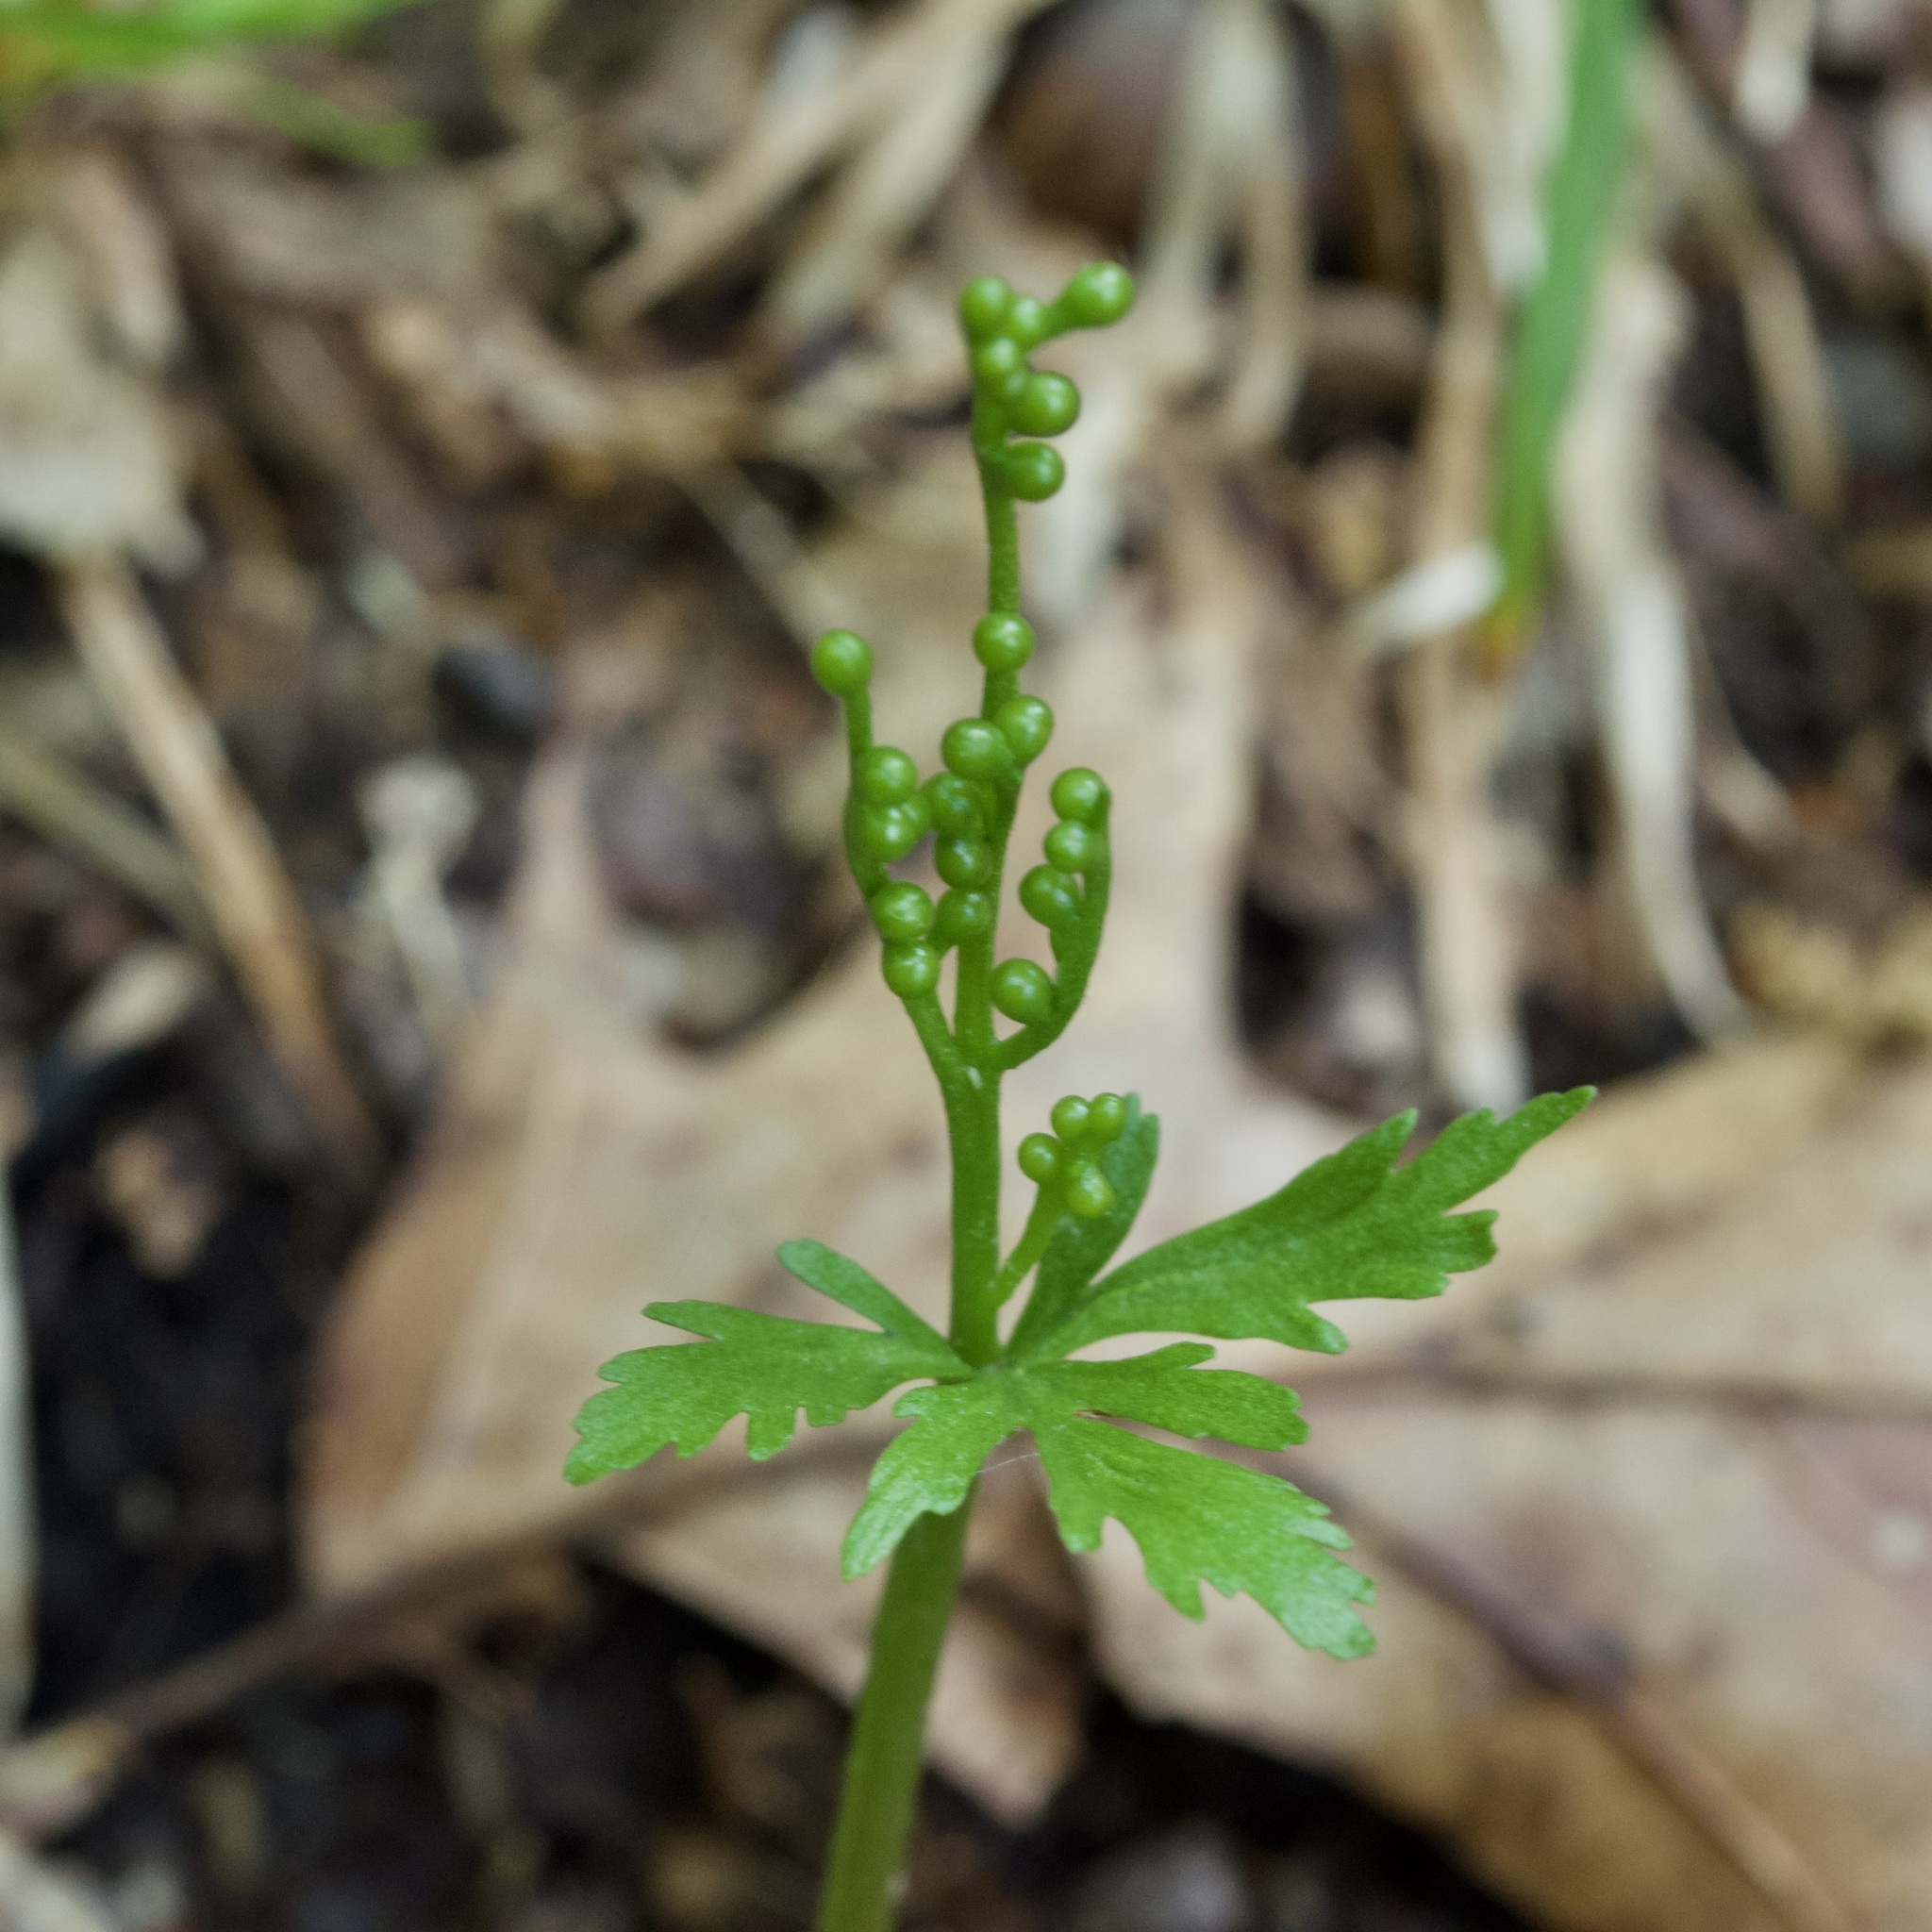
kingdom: Plantae
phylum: Tracheophyta
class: Polypodiopsida
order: Ophioglossales
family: Ophioglossaceae
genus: Botrychium
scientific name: Botrychium angustisegmentum
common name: Narrow triangle moonwort
